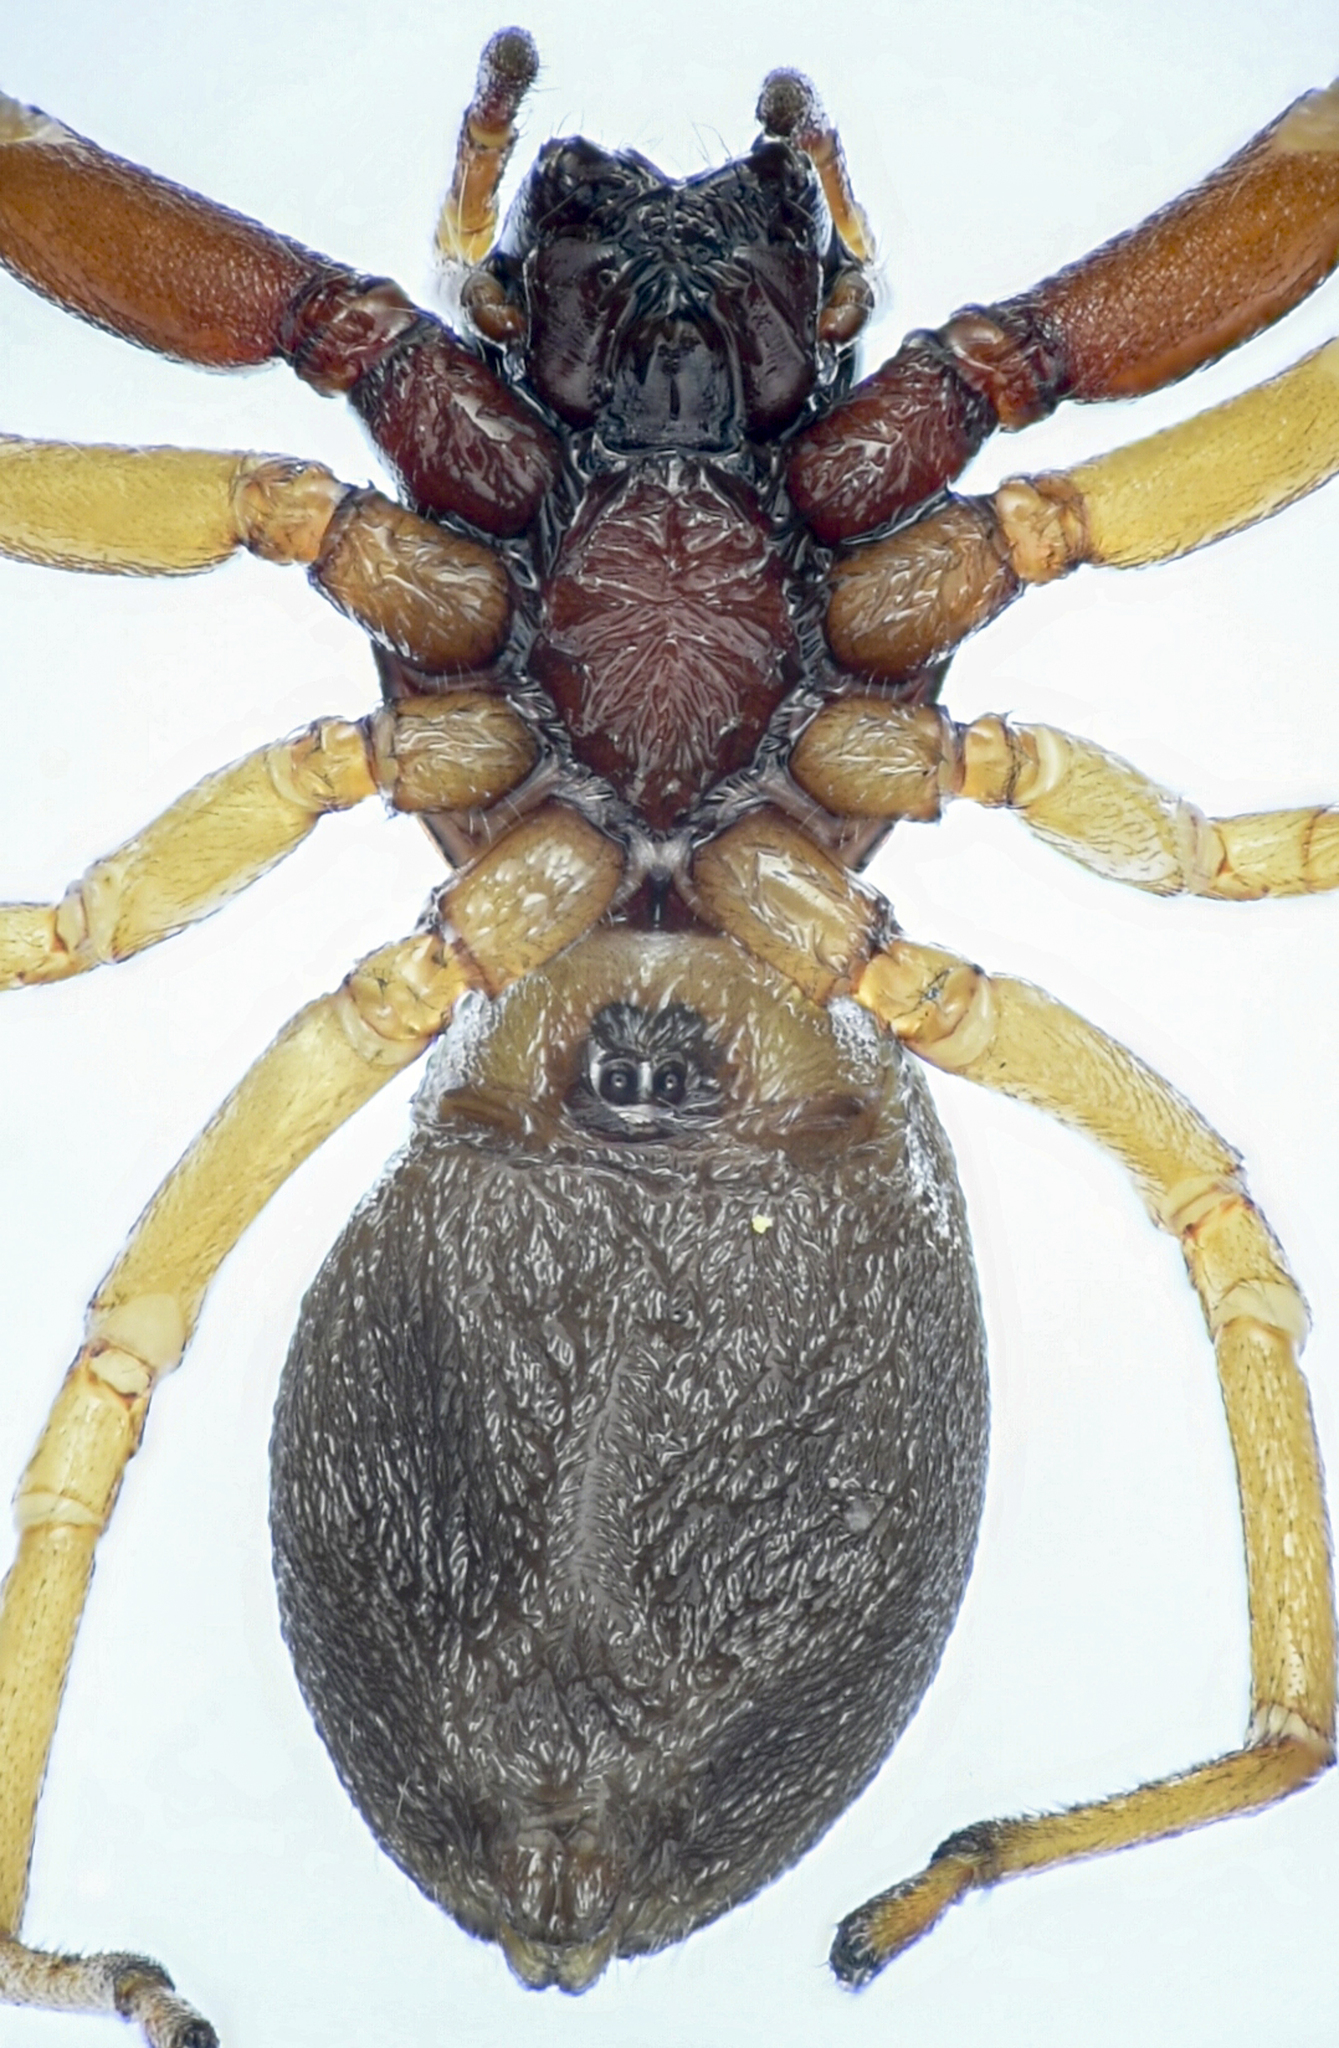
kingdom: Animalia
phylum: Arthropoda
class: Arachnida
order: Araneae
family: Trachelidae
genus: Trachelas
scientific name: Trachelas pacificus
